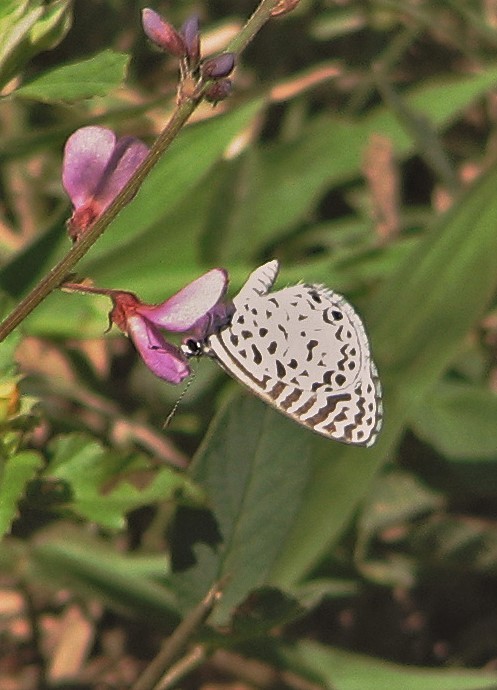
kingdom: Animalia
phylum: Arthropoda
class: Insecta
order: Lepidoptera
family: Lycaenidae
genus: Leptotes
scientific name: Leptotes cassius
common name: Cassius blue
